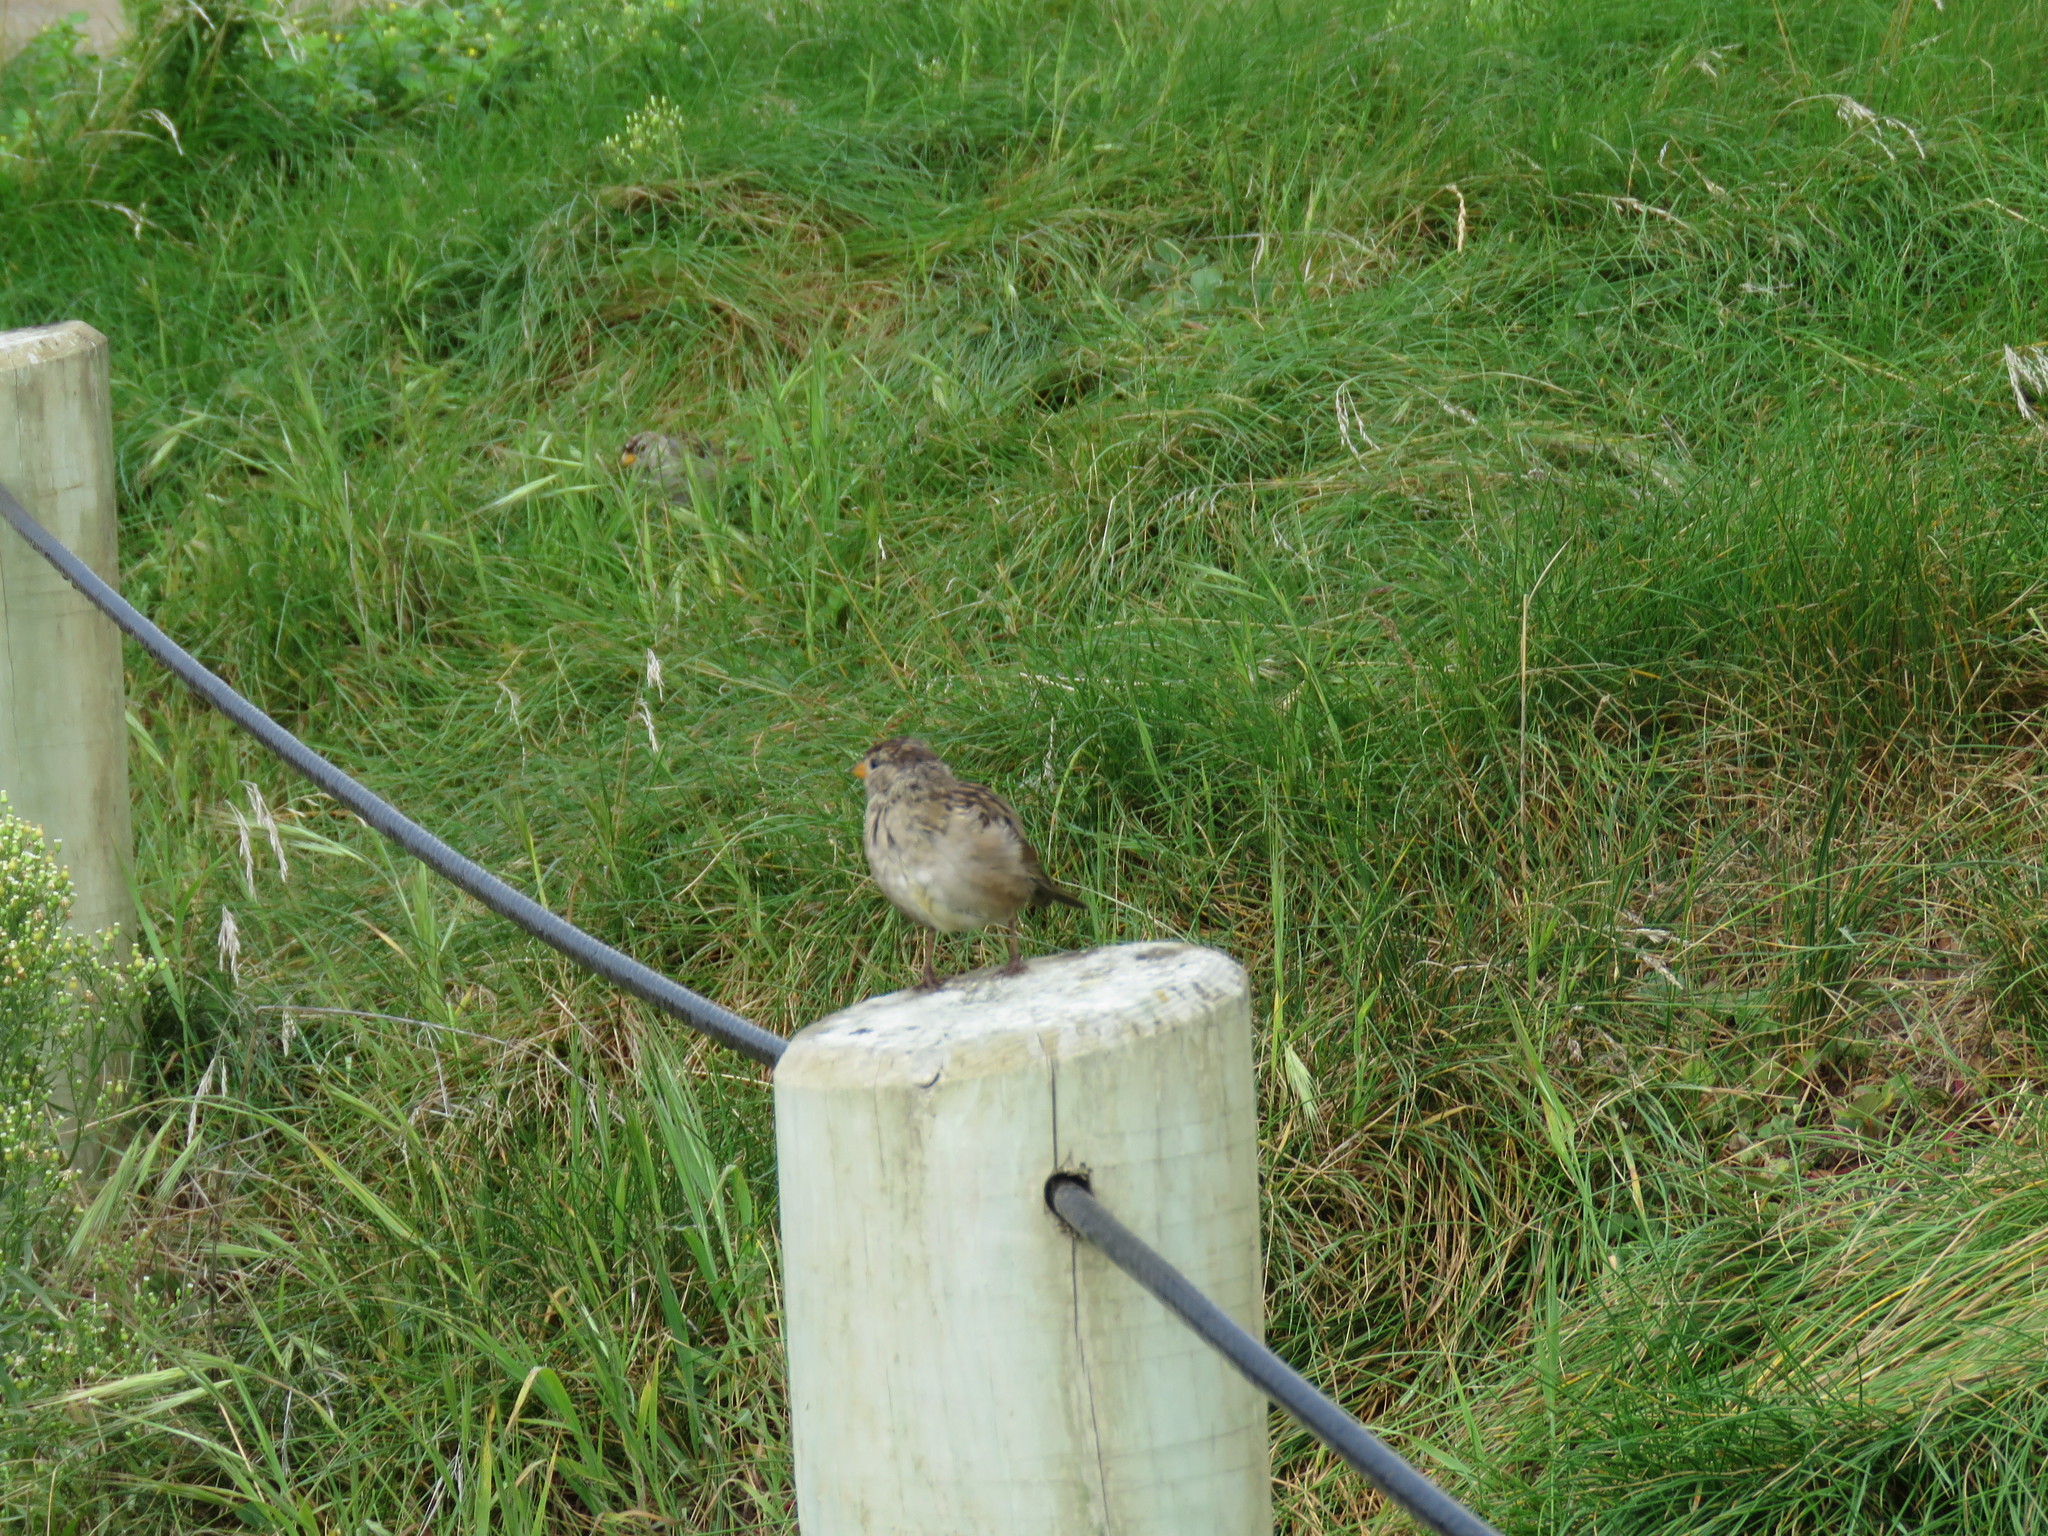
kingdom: Animalia
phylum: Chordata
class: Aves
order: Passeriformes
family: Passerellidae
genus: Zonotrichia
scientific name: Zonotrichia leucophrys
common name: White-crowned sparrow
